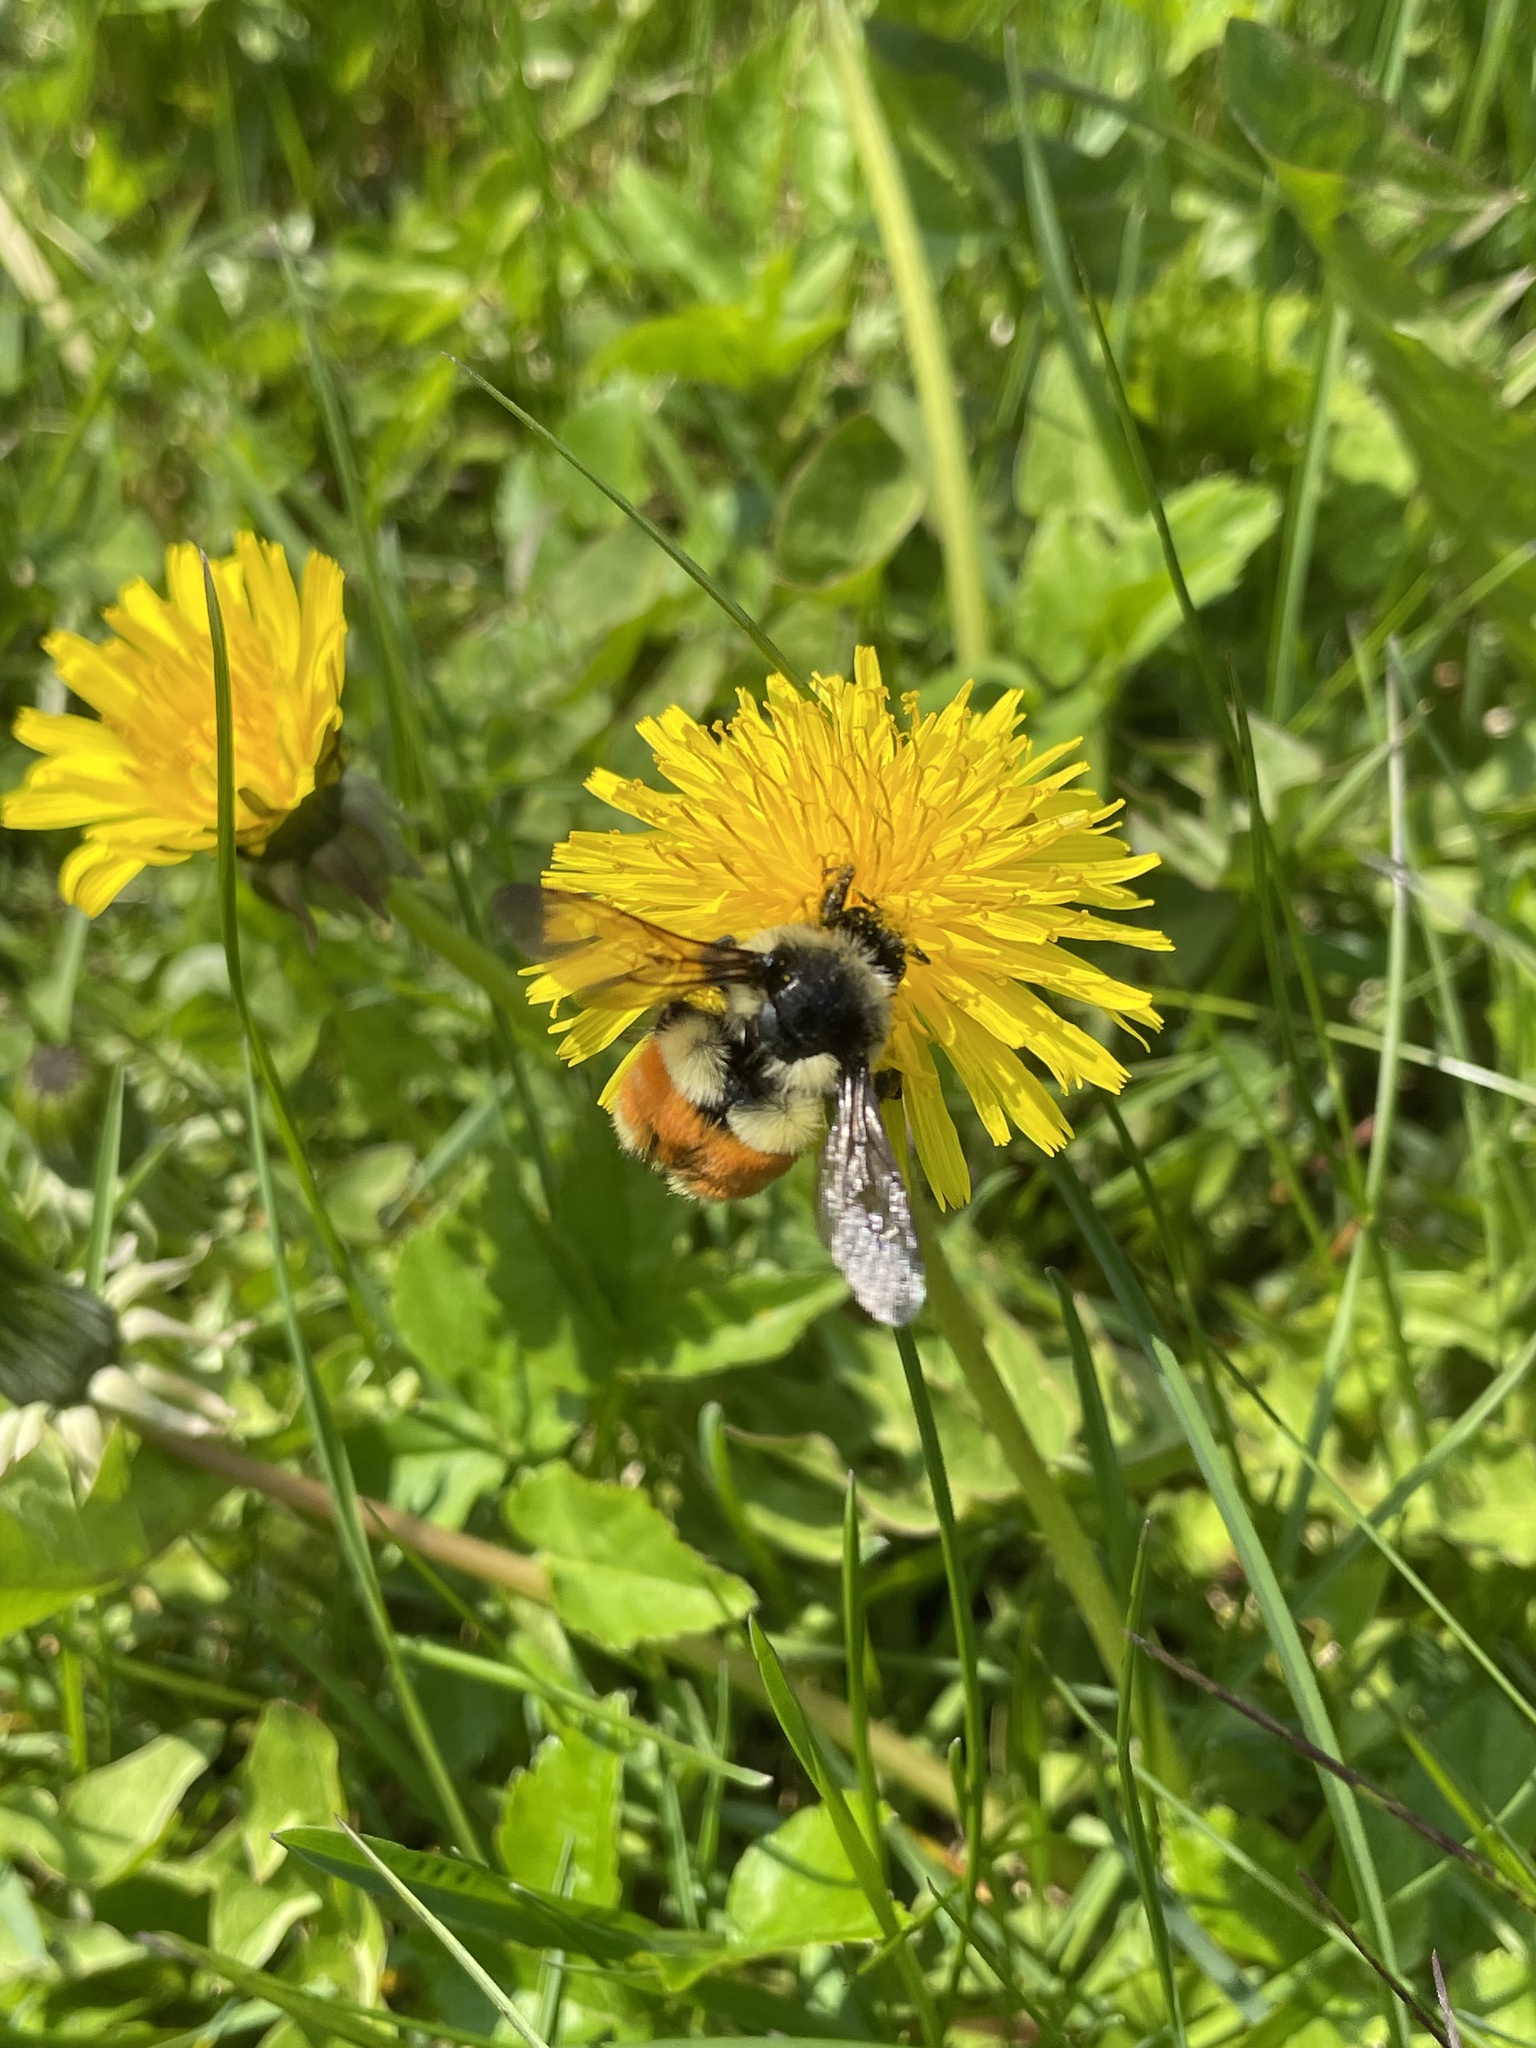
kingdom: Animalia
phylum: Arthropoda
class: Insecta
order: Hymenoptera
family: Apidae
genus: Bombus
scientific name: Bombus ternarius
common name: Tri-colored bumble bee
